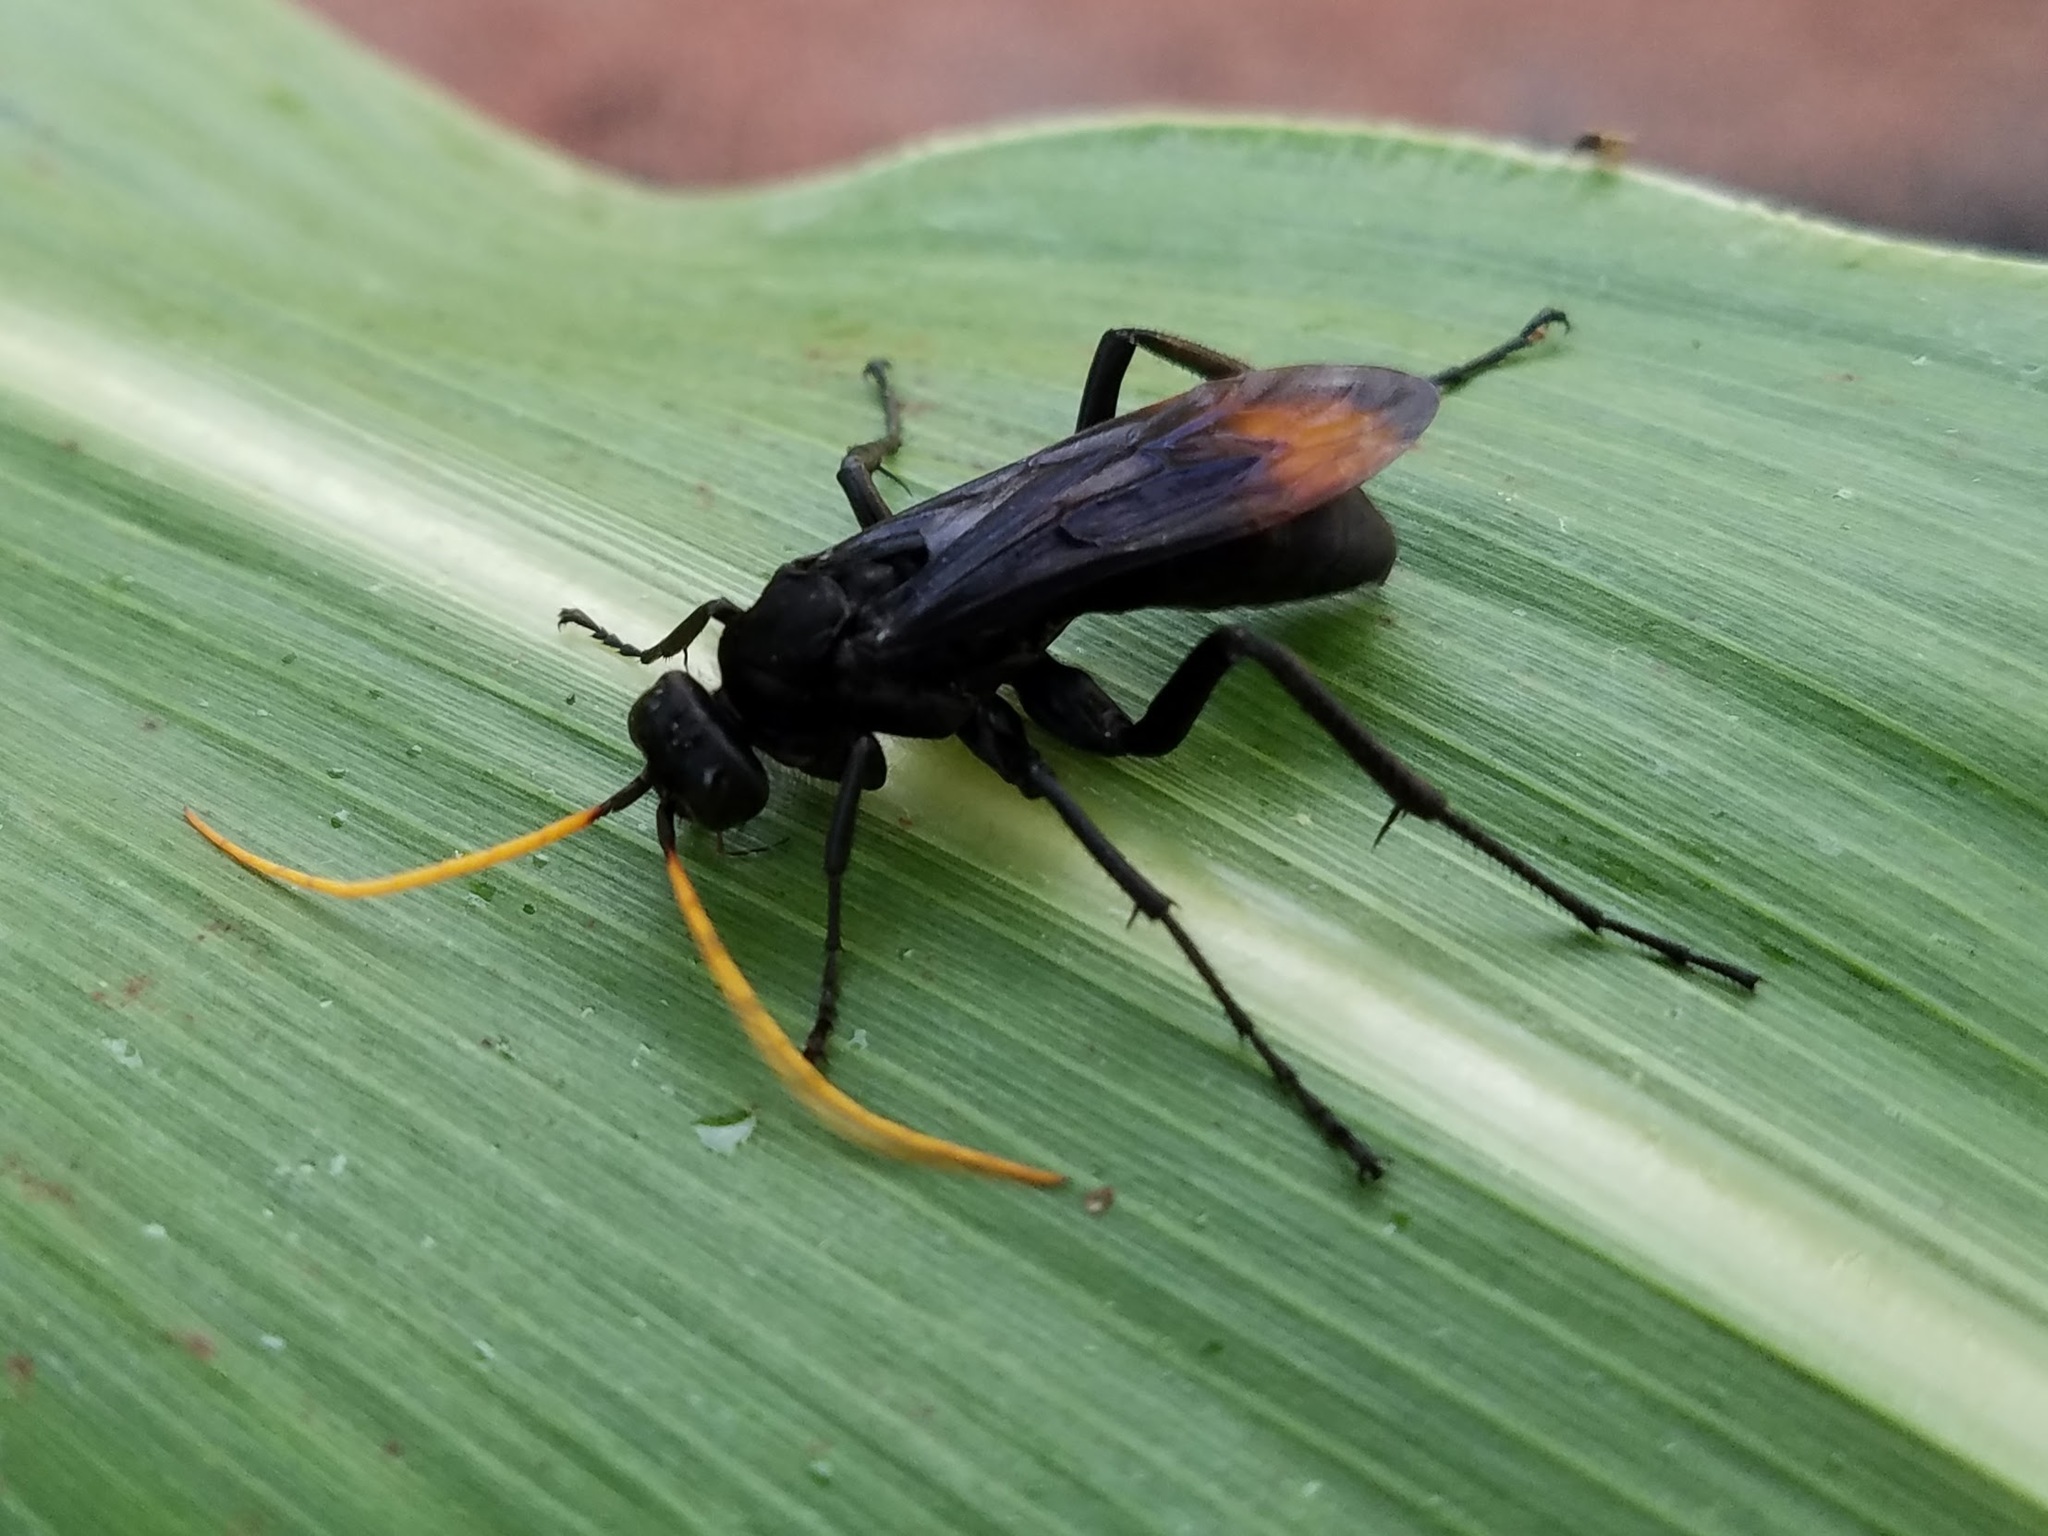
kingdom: Animalia
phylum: Arthropoda
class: Insecta
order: Hymenoptera
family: Pompilidae
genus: Entypus
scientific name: Entypus unifasciatus
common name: Eastern tawny-horned spider wasp
